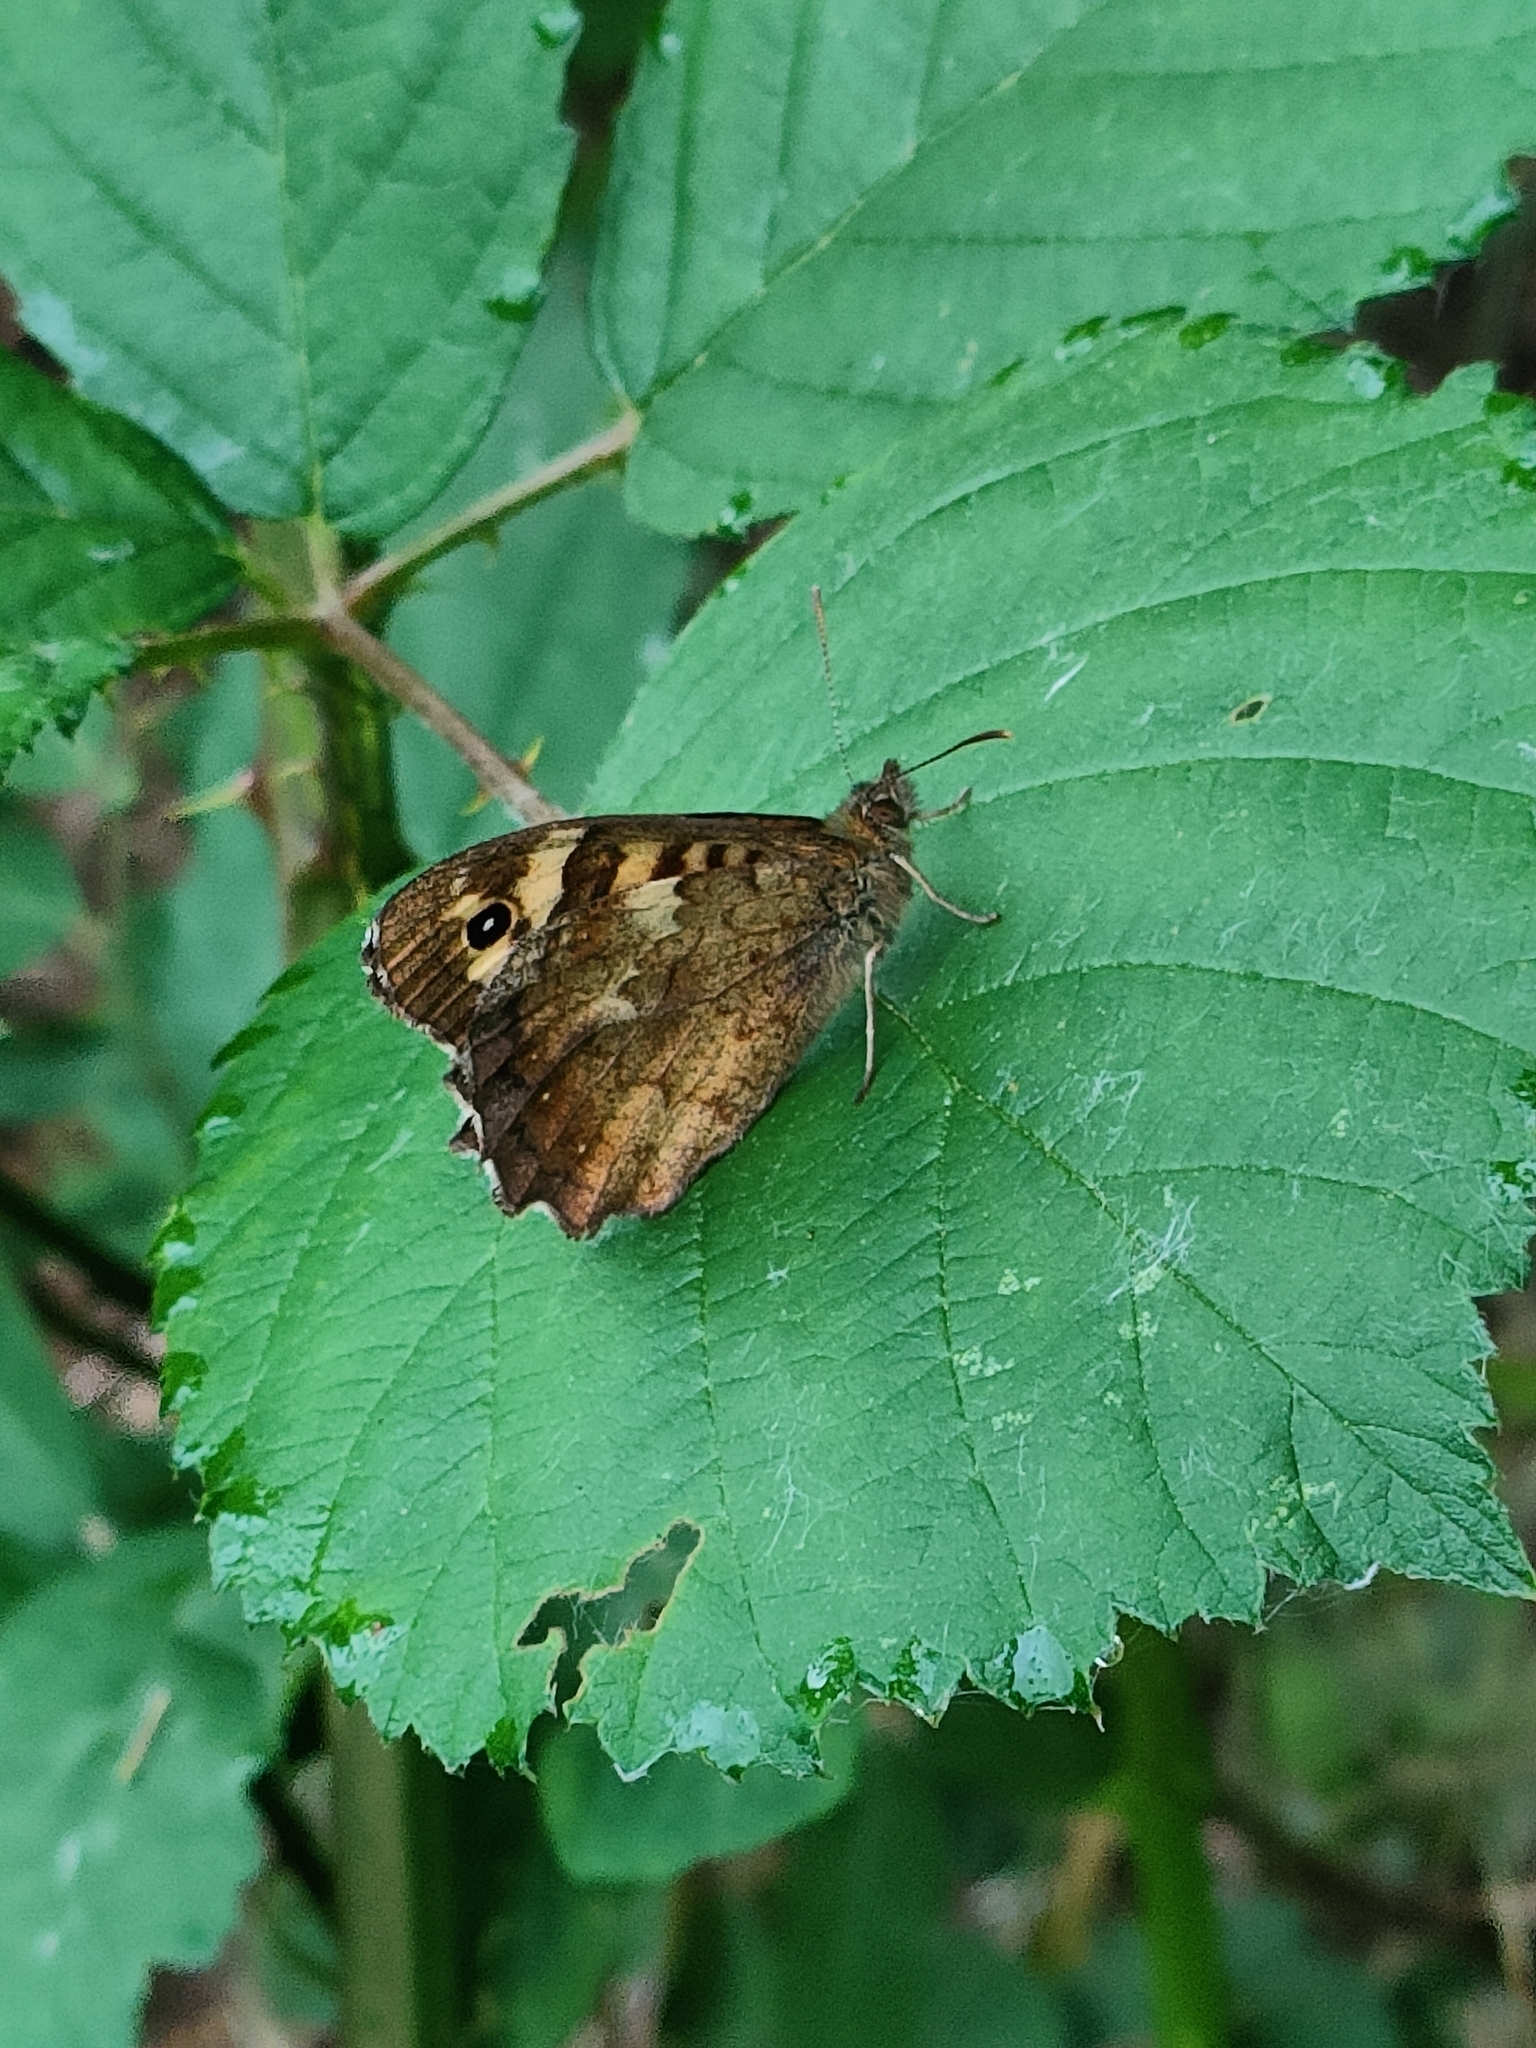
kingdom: Animalia
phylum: Arthropoda
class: Insecta
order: Lepidoptera
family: Nymphalidae
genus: Pararge
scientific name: Pararge aegeria
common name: Speckled wood
